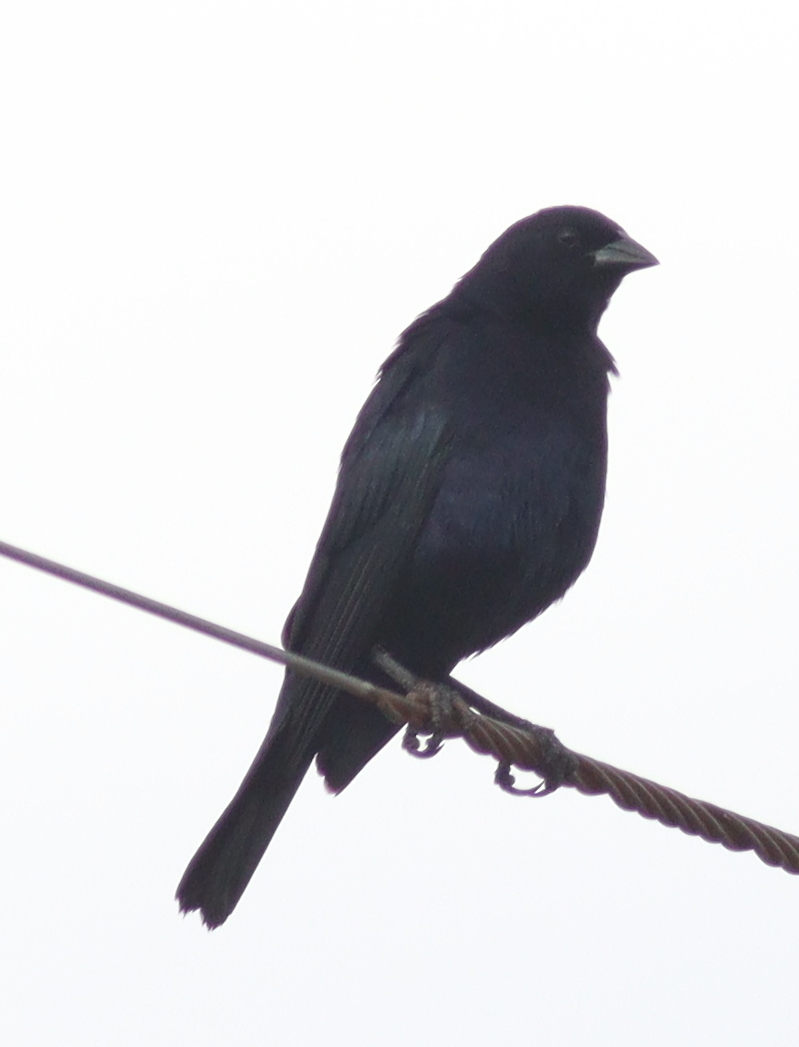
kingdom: Animalia
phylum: Chordata
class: Aves
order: Passeriformes
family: Icteridae
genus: Molothrus
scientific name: Molothrus bonariensis
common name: Shiny cowbird
